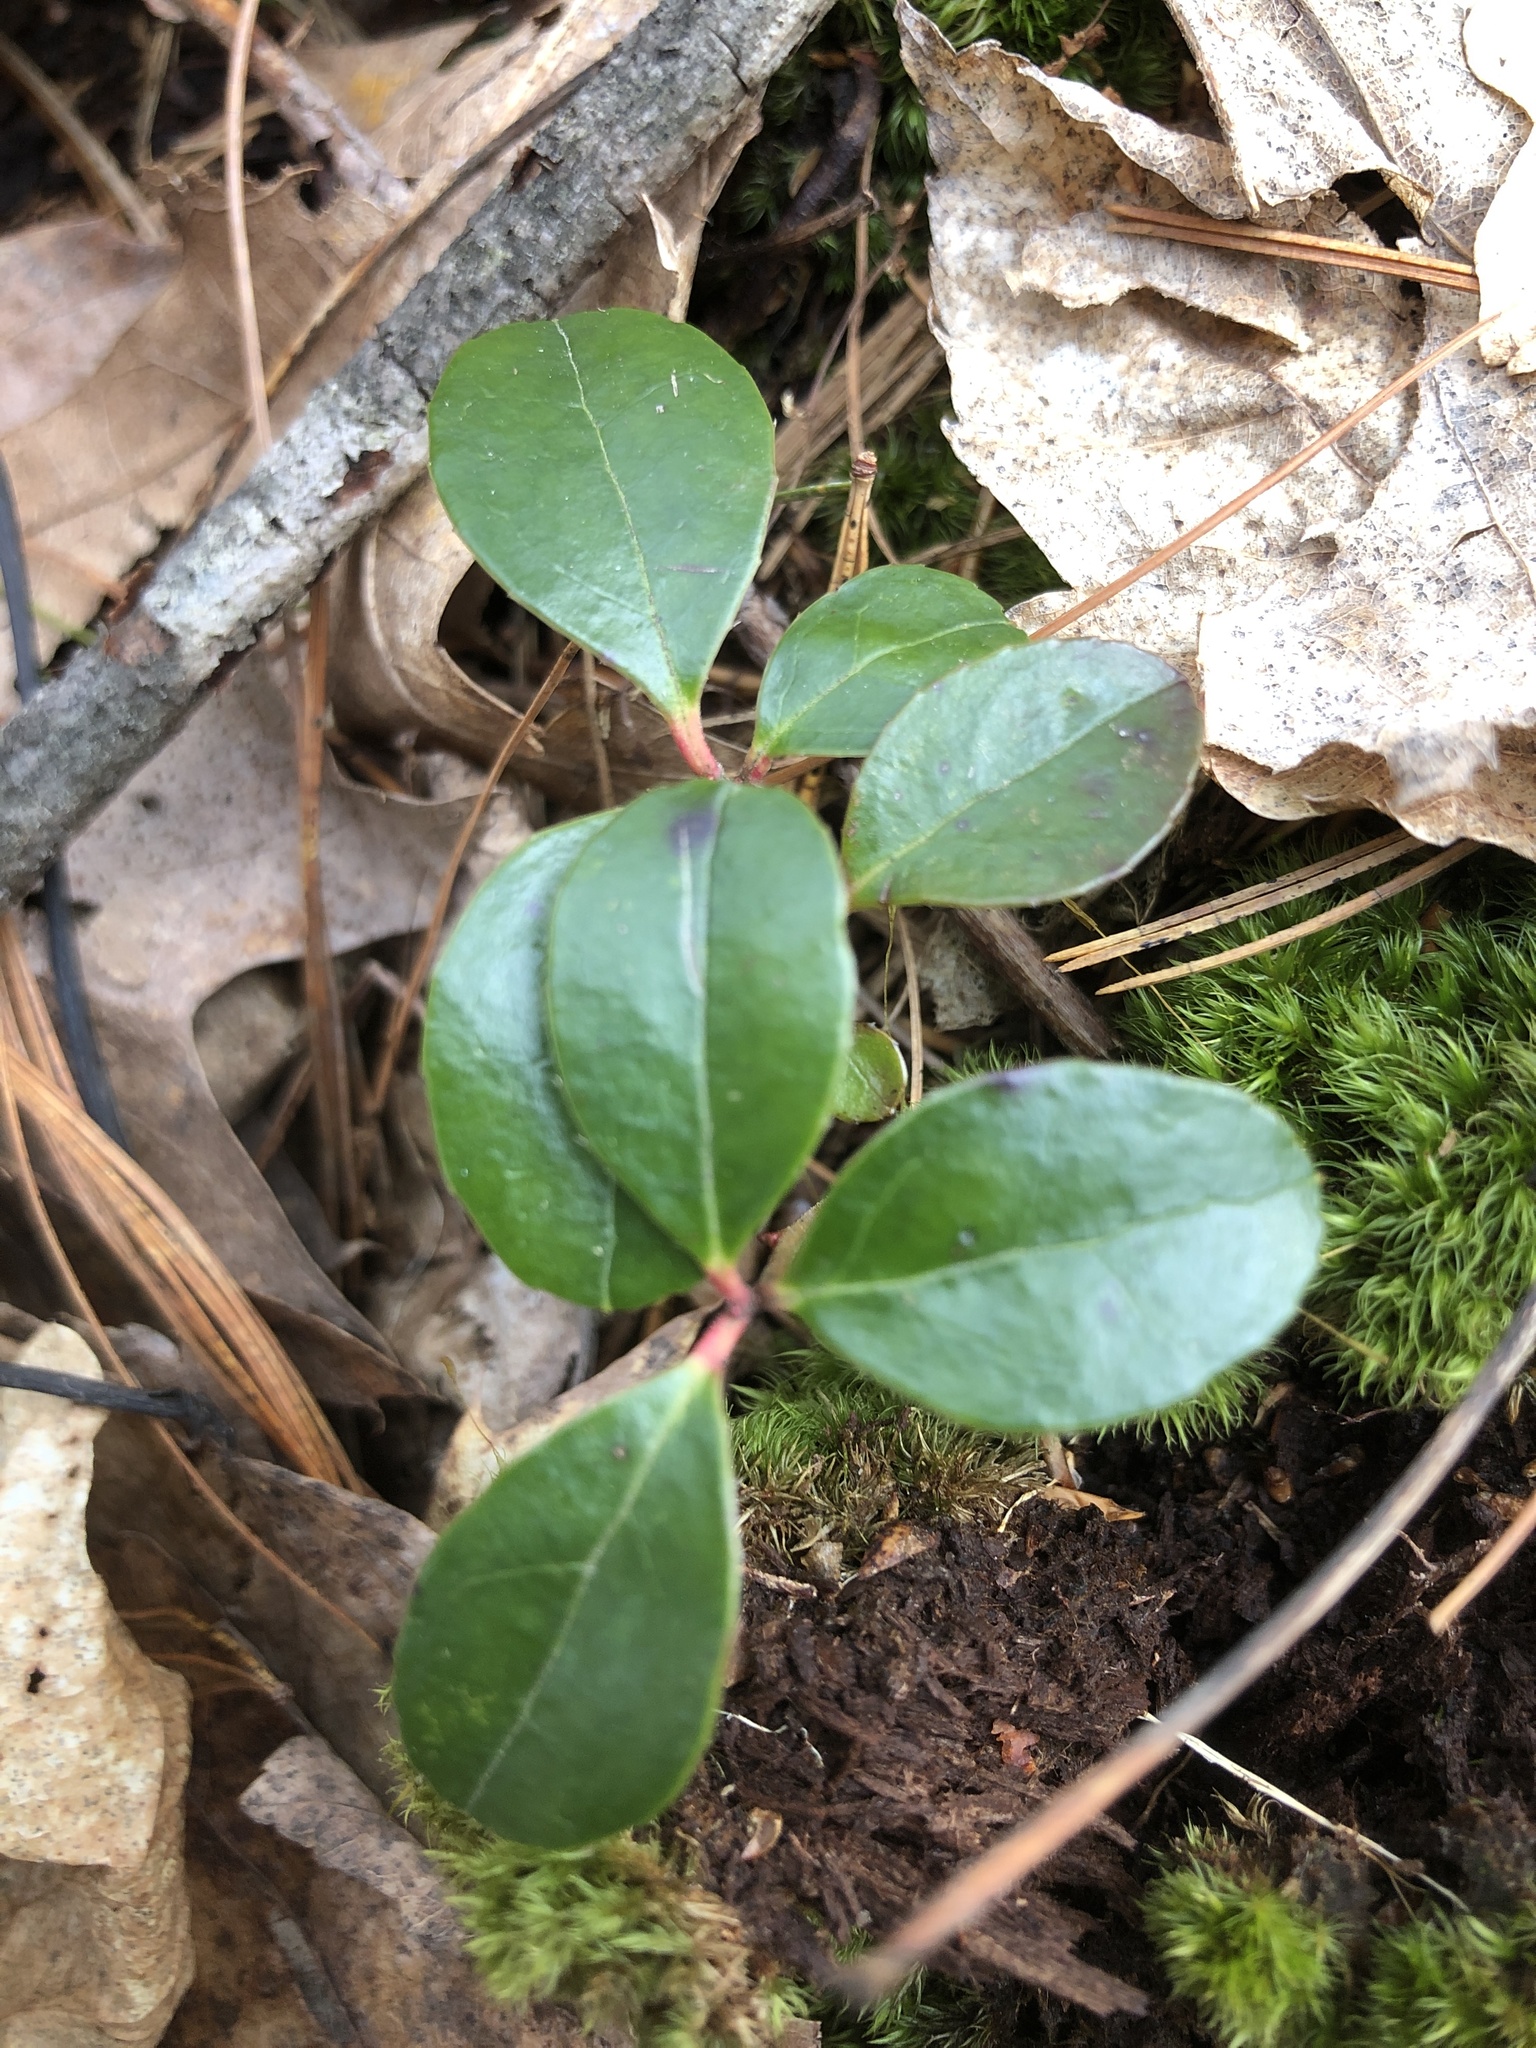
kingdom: Plantae
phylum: Tracheophyta
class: Magnoliopsida
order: Ericales
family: Ericaceae
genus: Gaultheria
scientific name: Gaultheria procumbens
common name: Checkerberry
